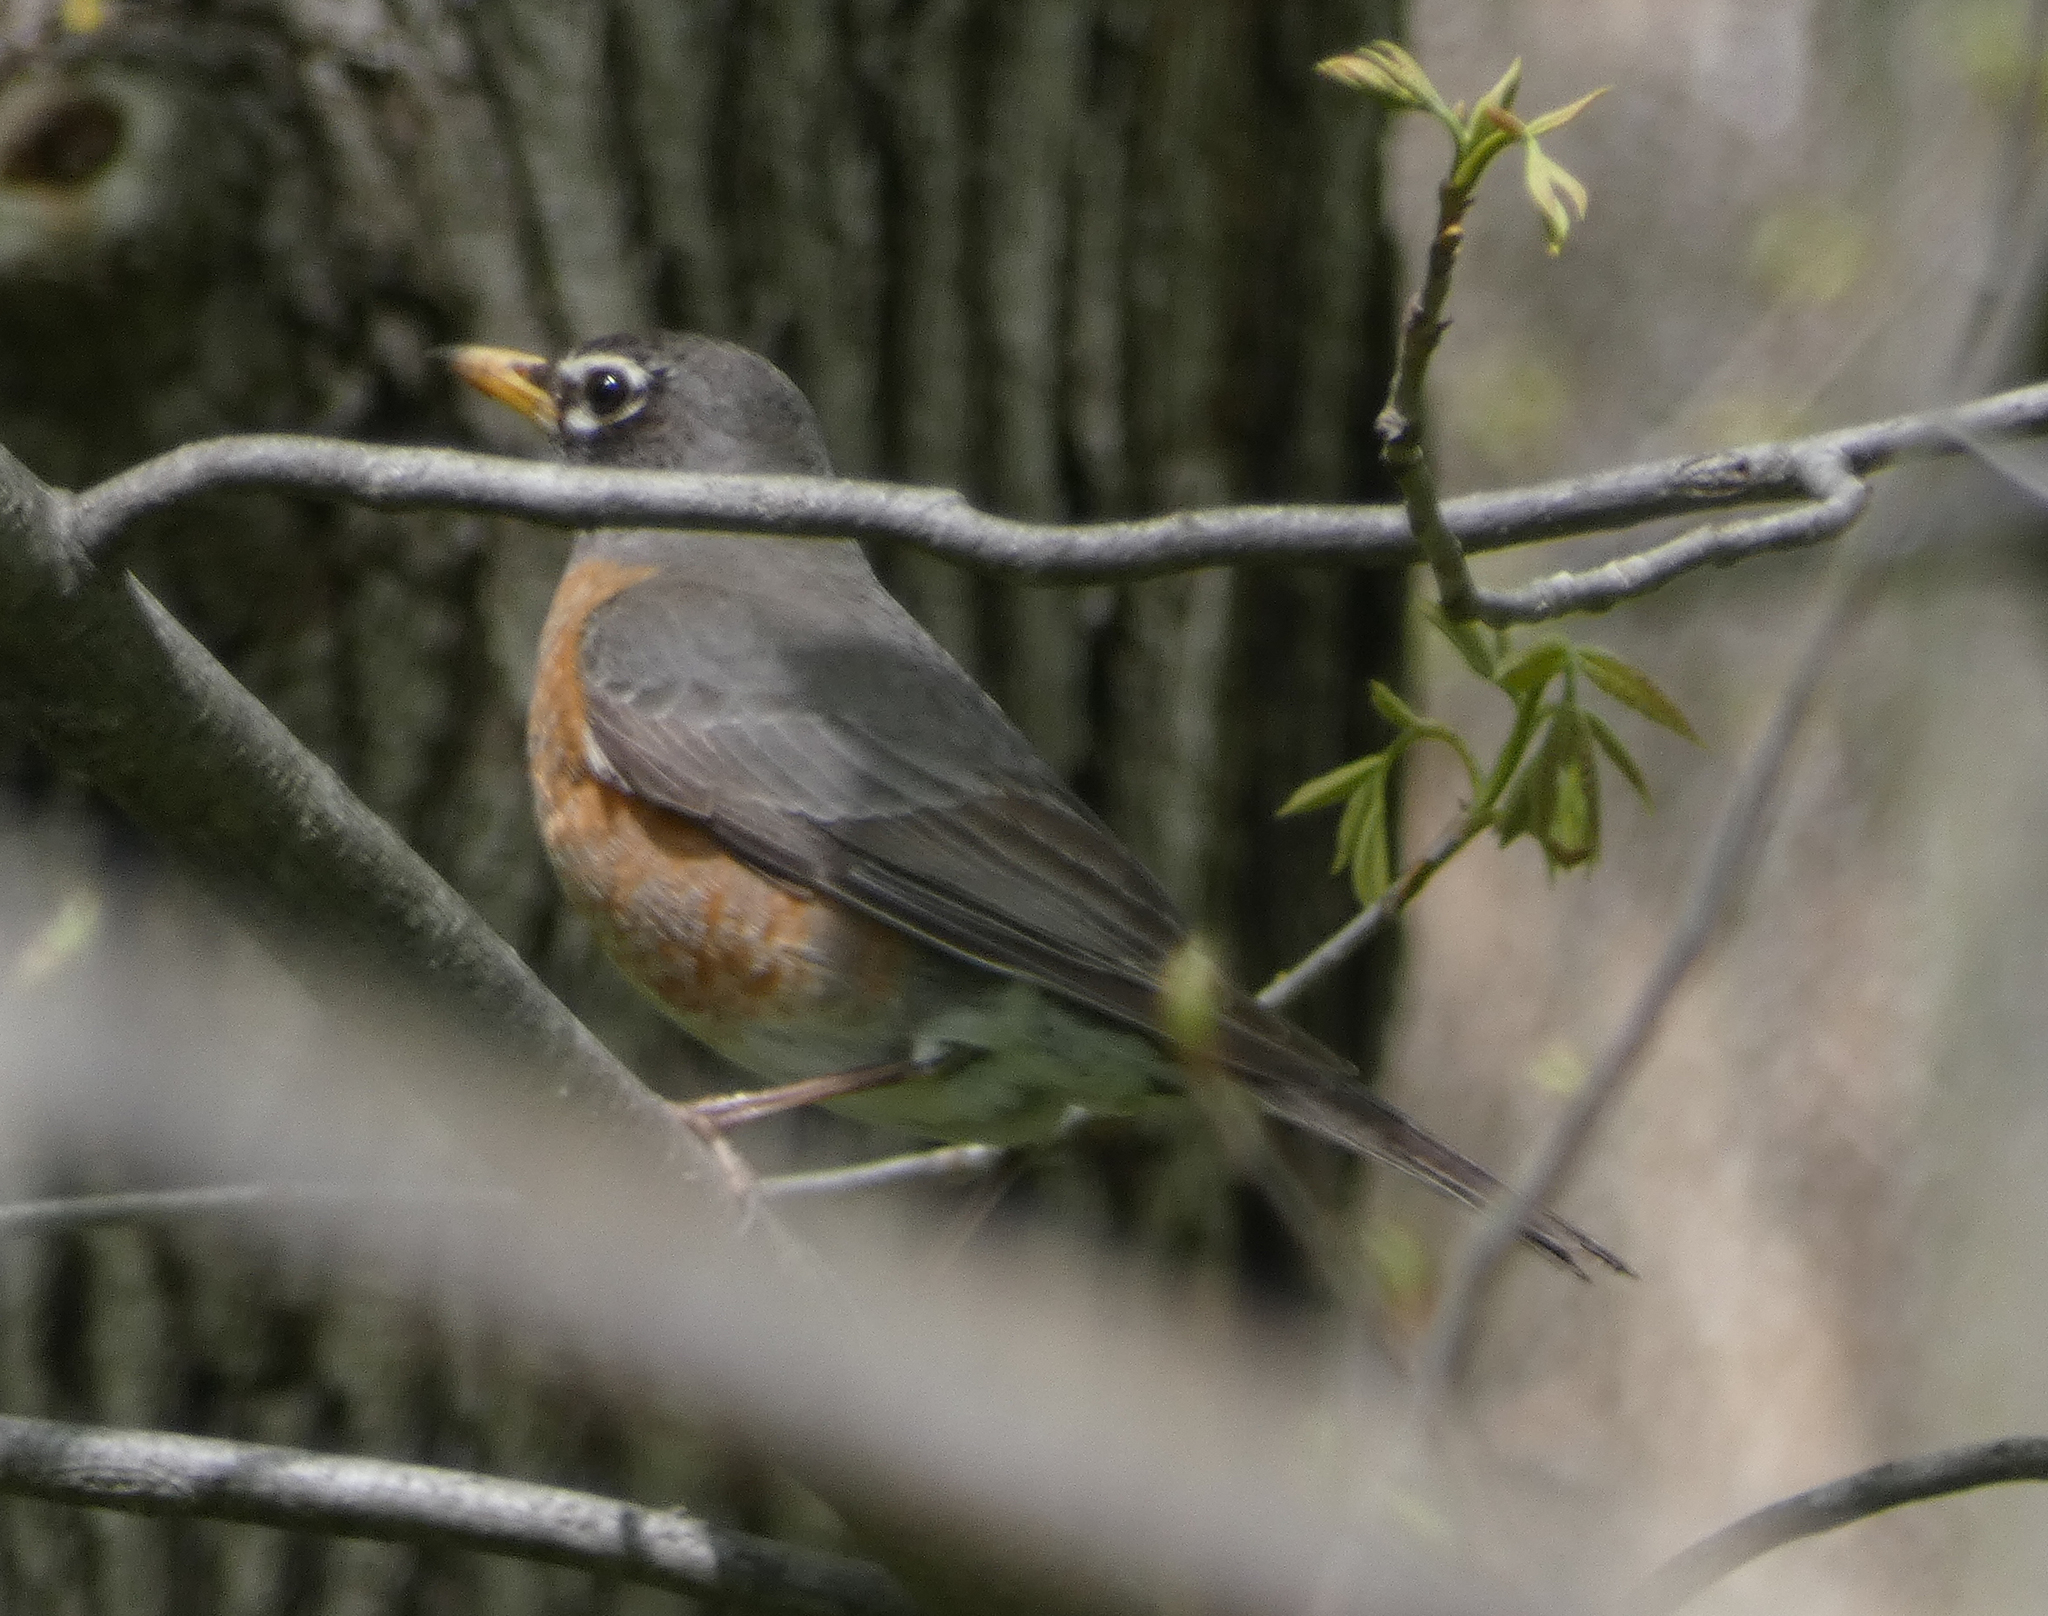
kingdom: Animalia
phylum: Chordata
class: Aves
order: Passeriformes
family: Turdidae
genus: Turdus
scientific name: Turdus migratorius
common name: American robin
